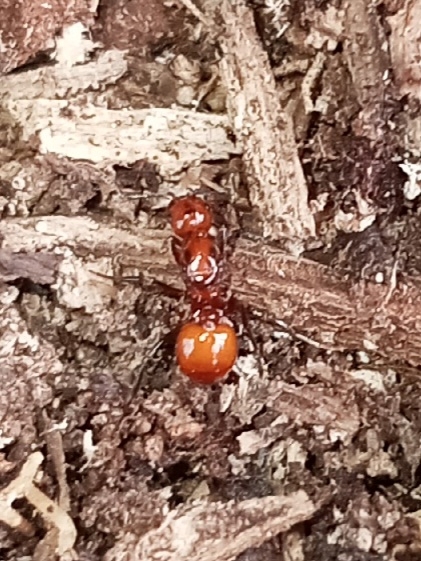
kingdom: Animalia
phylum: Arthropoda
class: Insecta
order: Hymenoptera
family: Formicidae
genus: Aphaenogaster
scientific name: Aphaenogaster tennesseensis
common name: Tennessee thread-waisted ant
